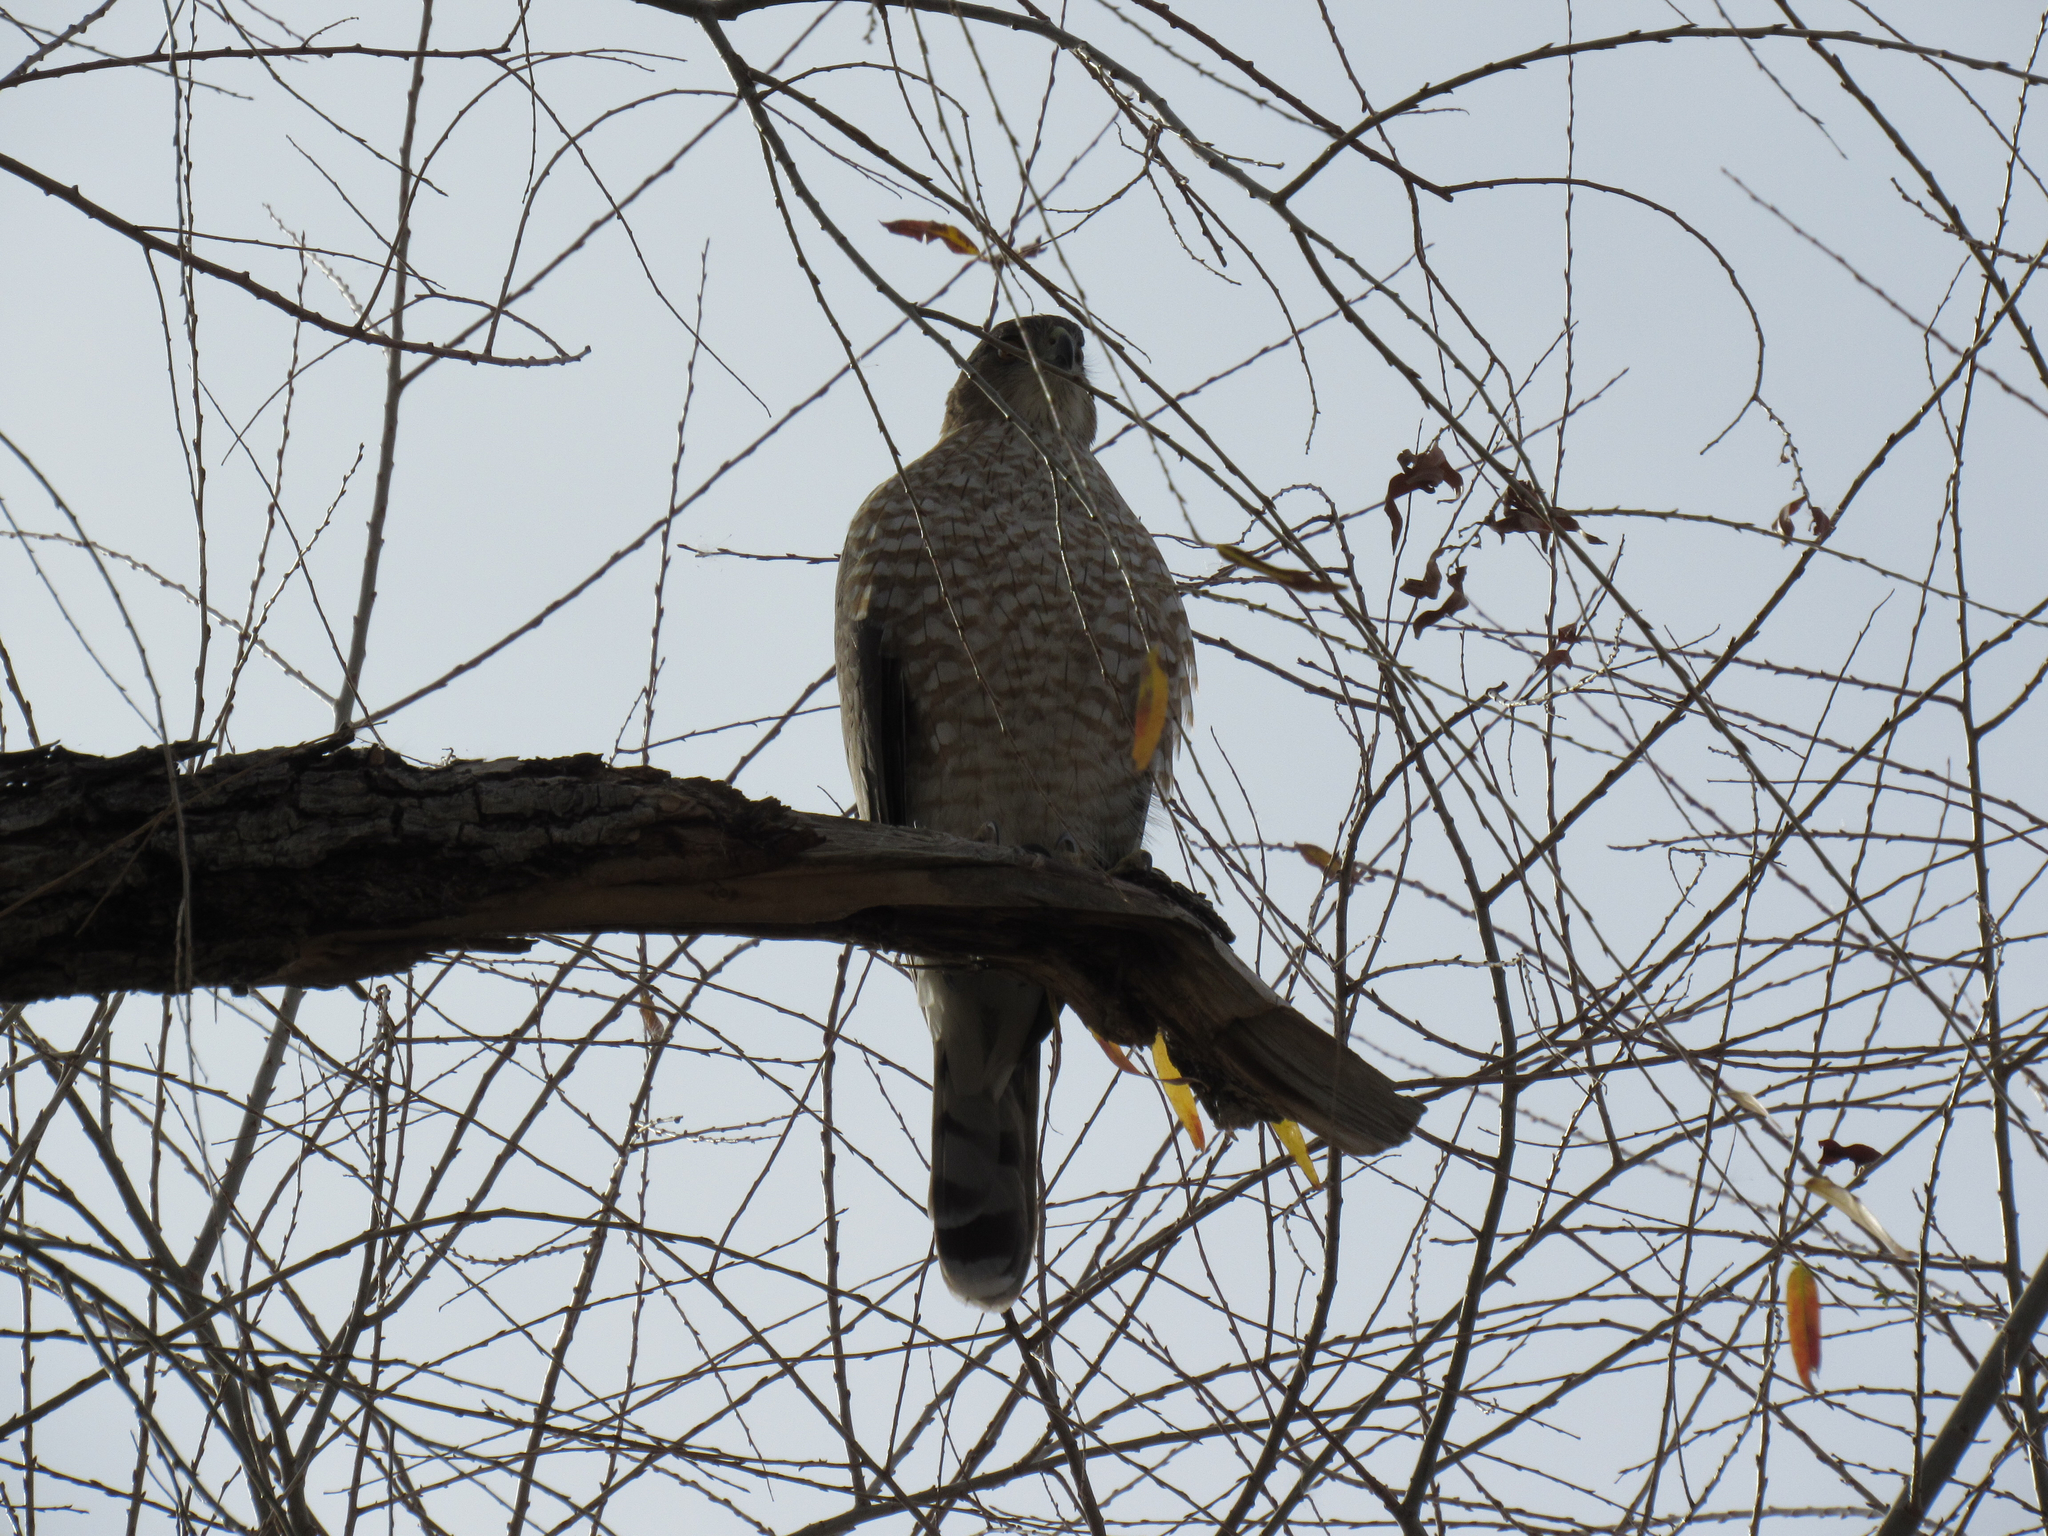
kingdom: Animalia
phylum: Chordata
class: Aves
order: Accipitriformes
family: Accipitridae
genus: Accipiter
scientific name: Accipiter cooperii
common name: Cooper's hawk
